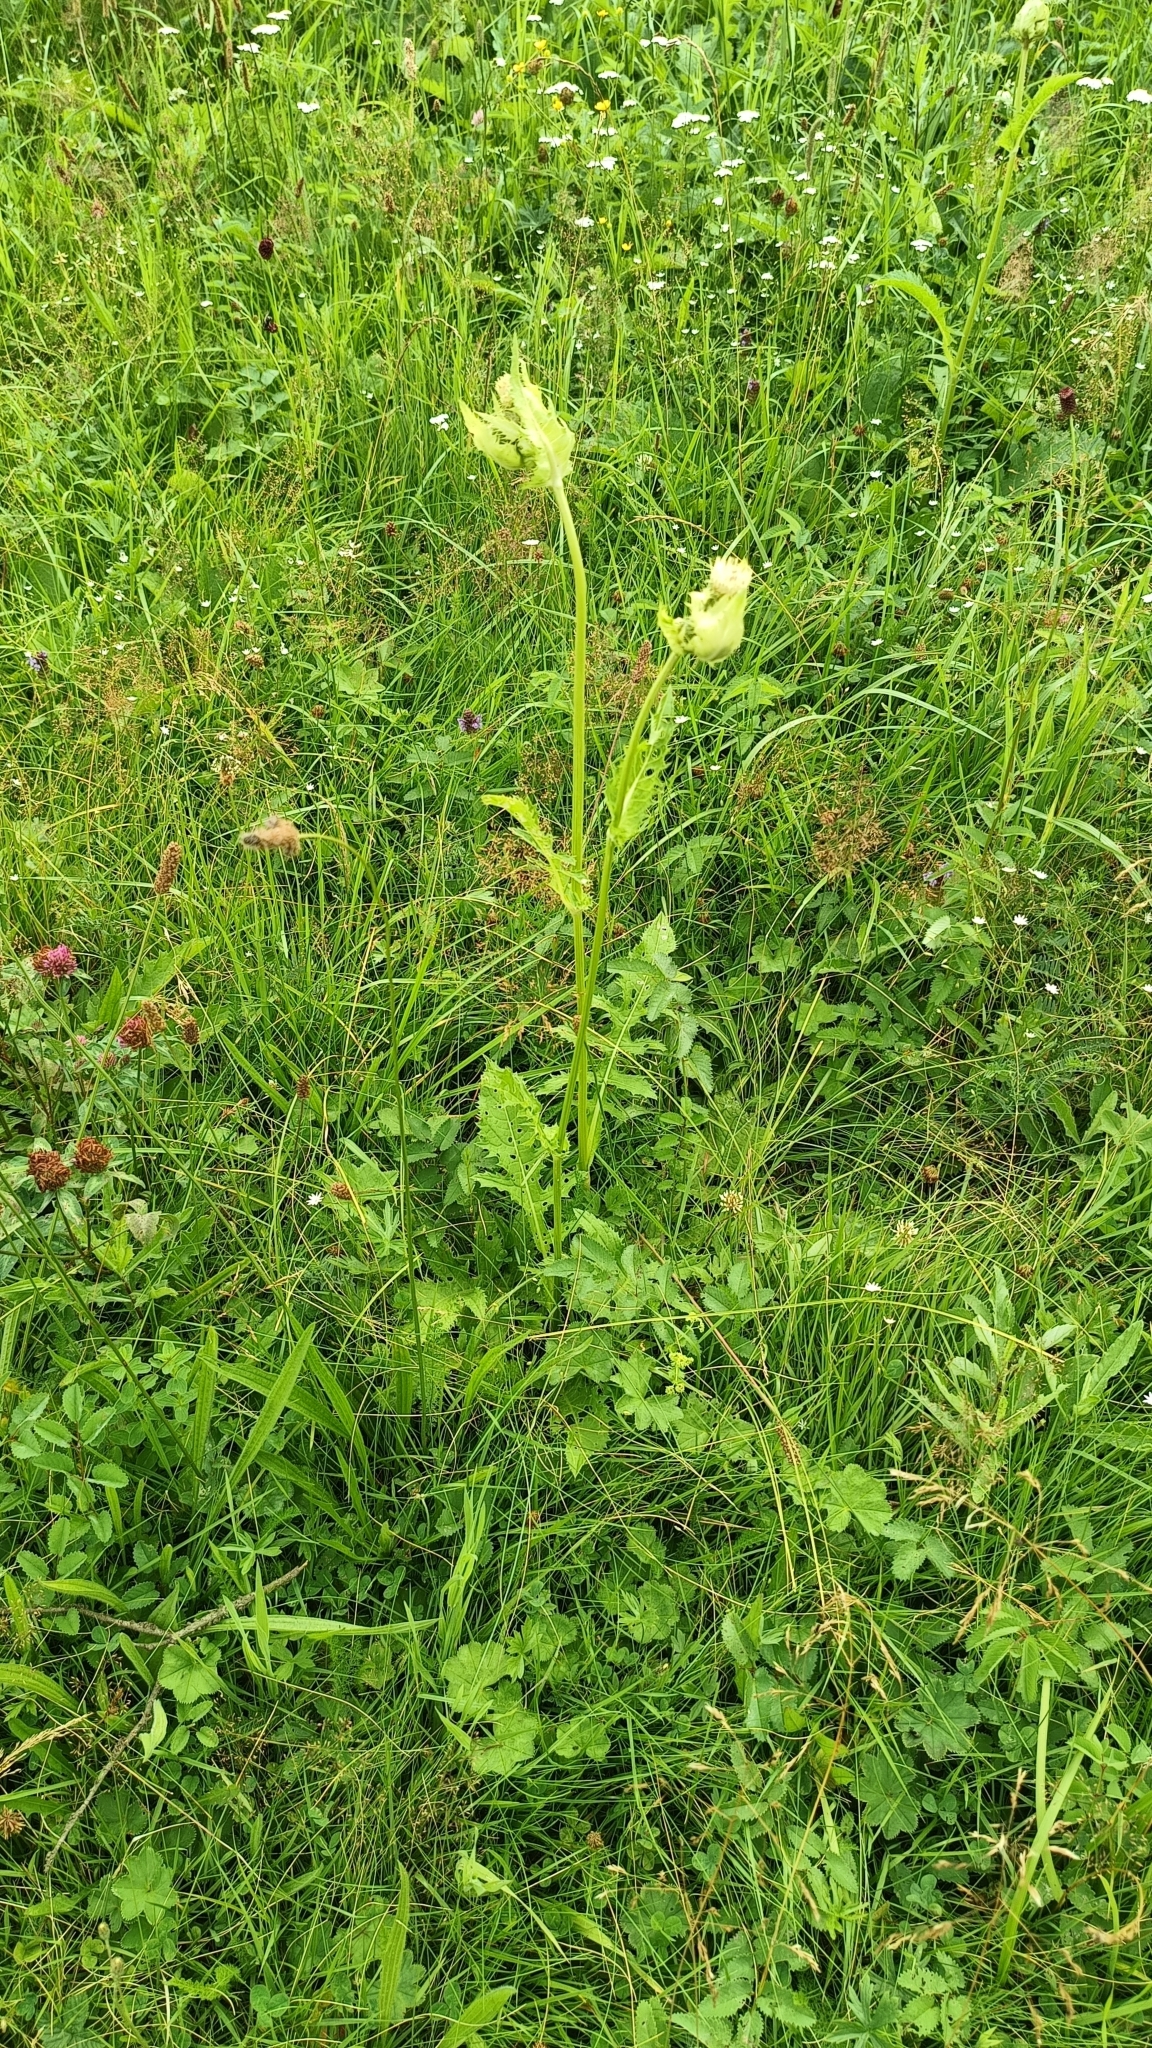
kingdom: Plantae
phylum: Tracheophyta
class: Magnoliopsida
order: Asterales
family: Asteraceae
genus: Cirsium
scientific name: Cirsium oleraceum
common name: Cabbage thistle
